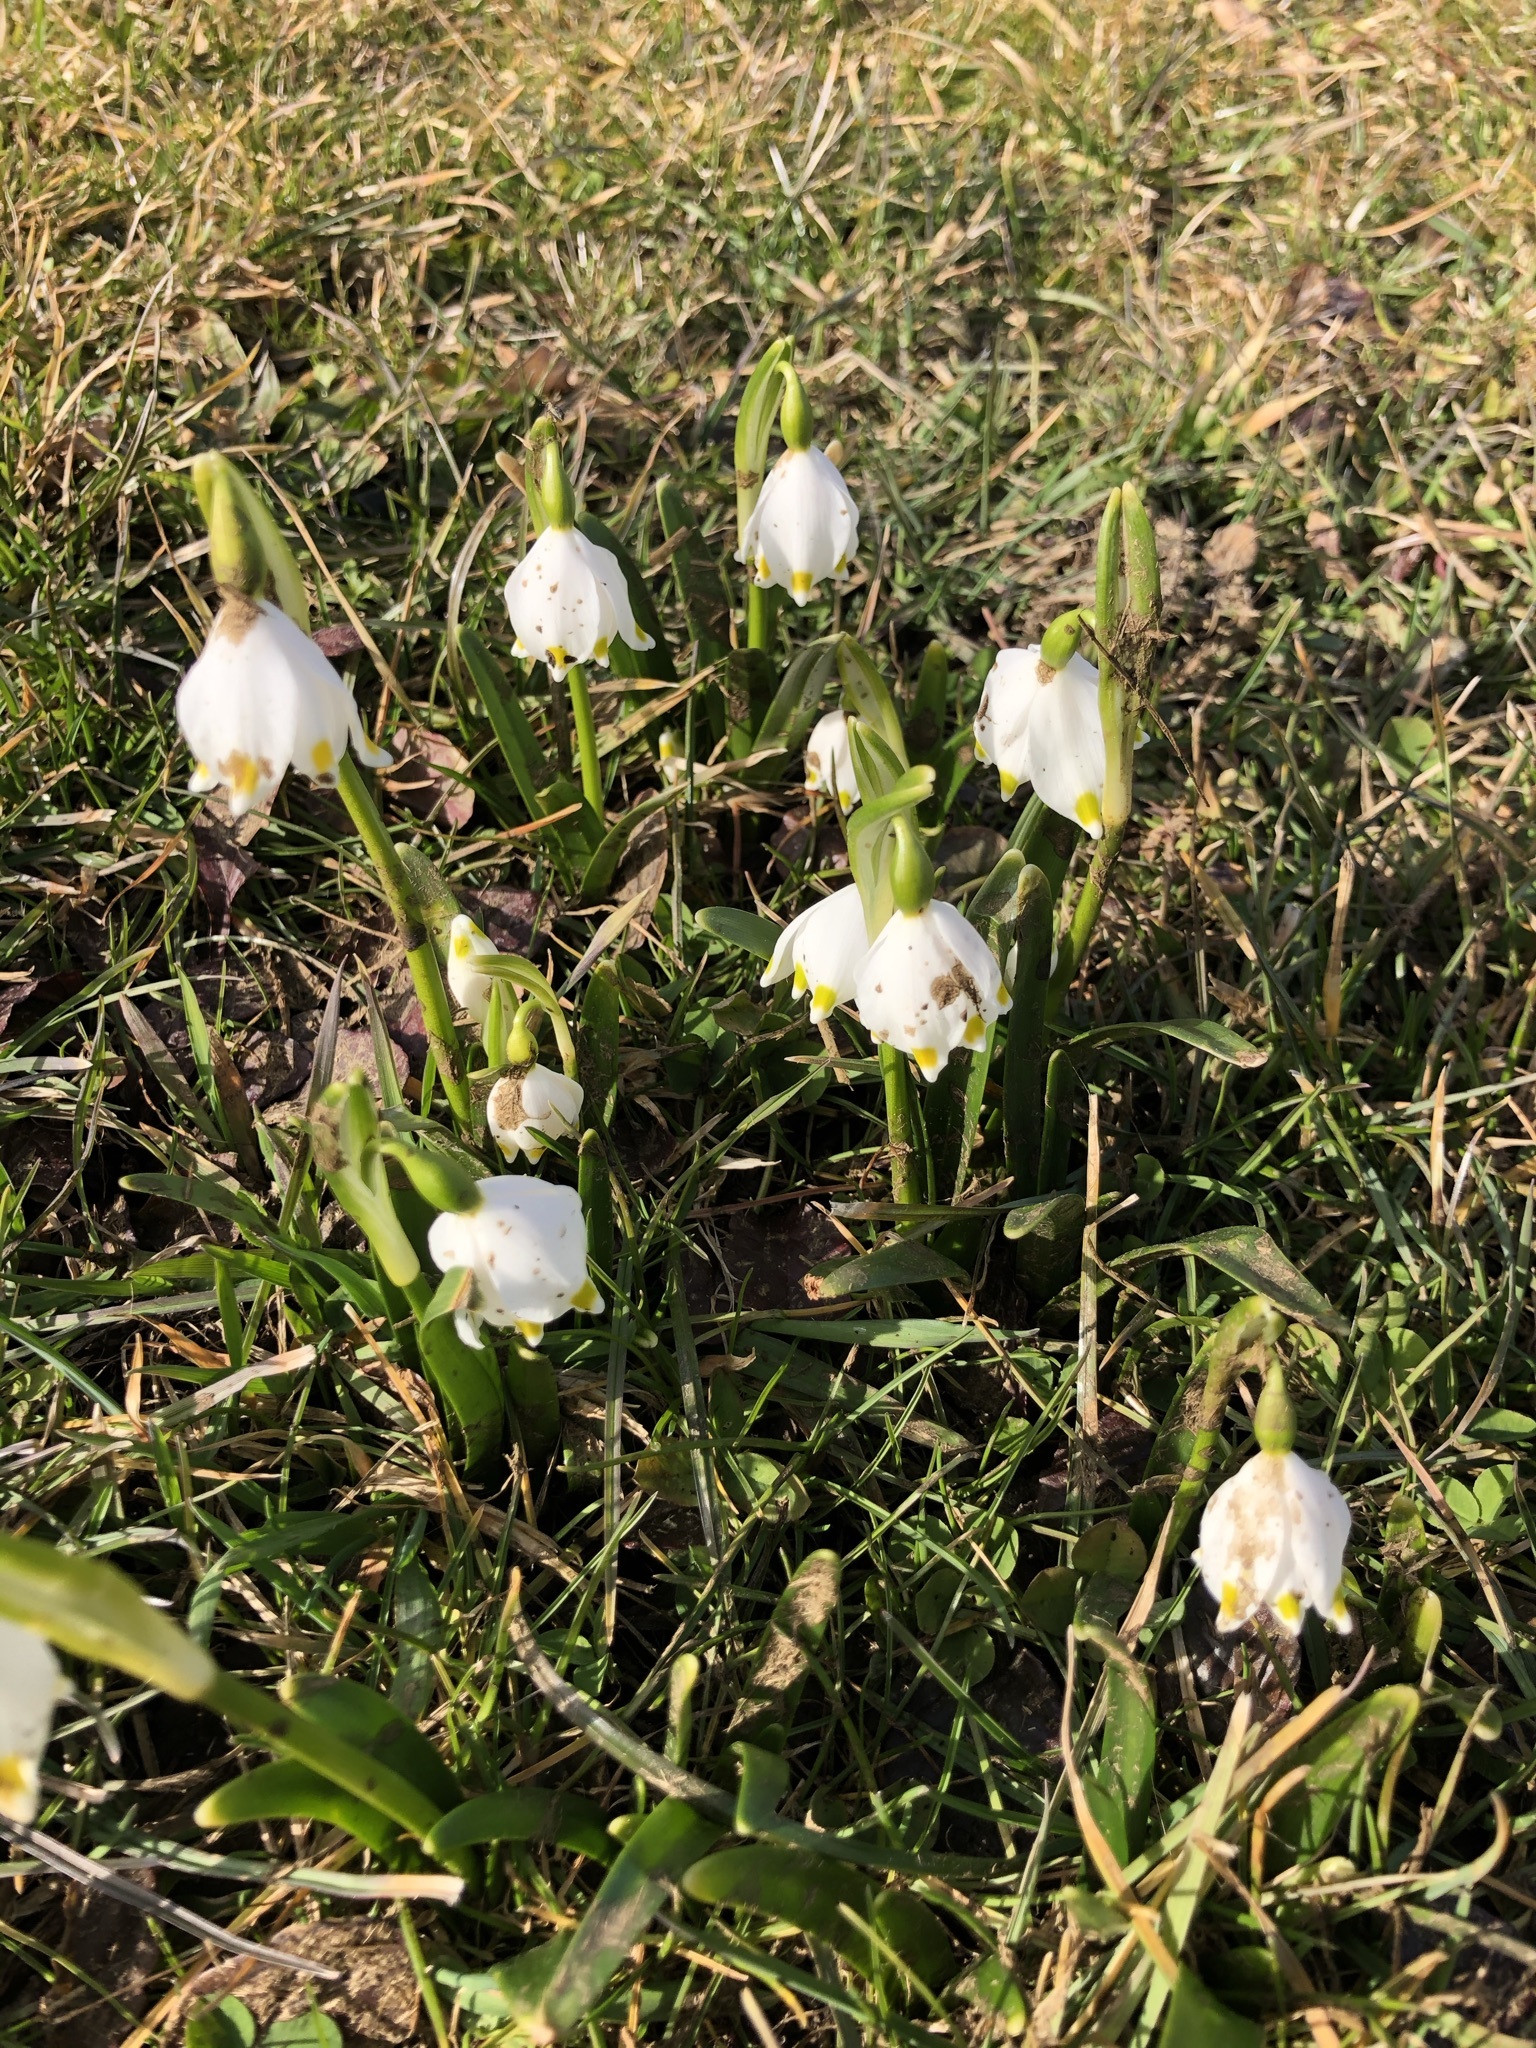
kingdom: Plantae
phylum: Tracheophyta
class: Liliopsida
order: Asparagales
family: Amaryllidaceae
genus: Leucojum
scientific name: Leucojum vernum
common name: Spring snowflake
